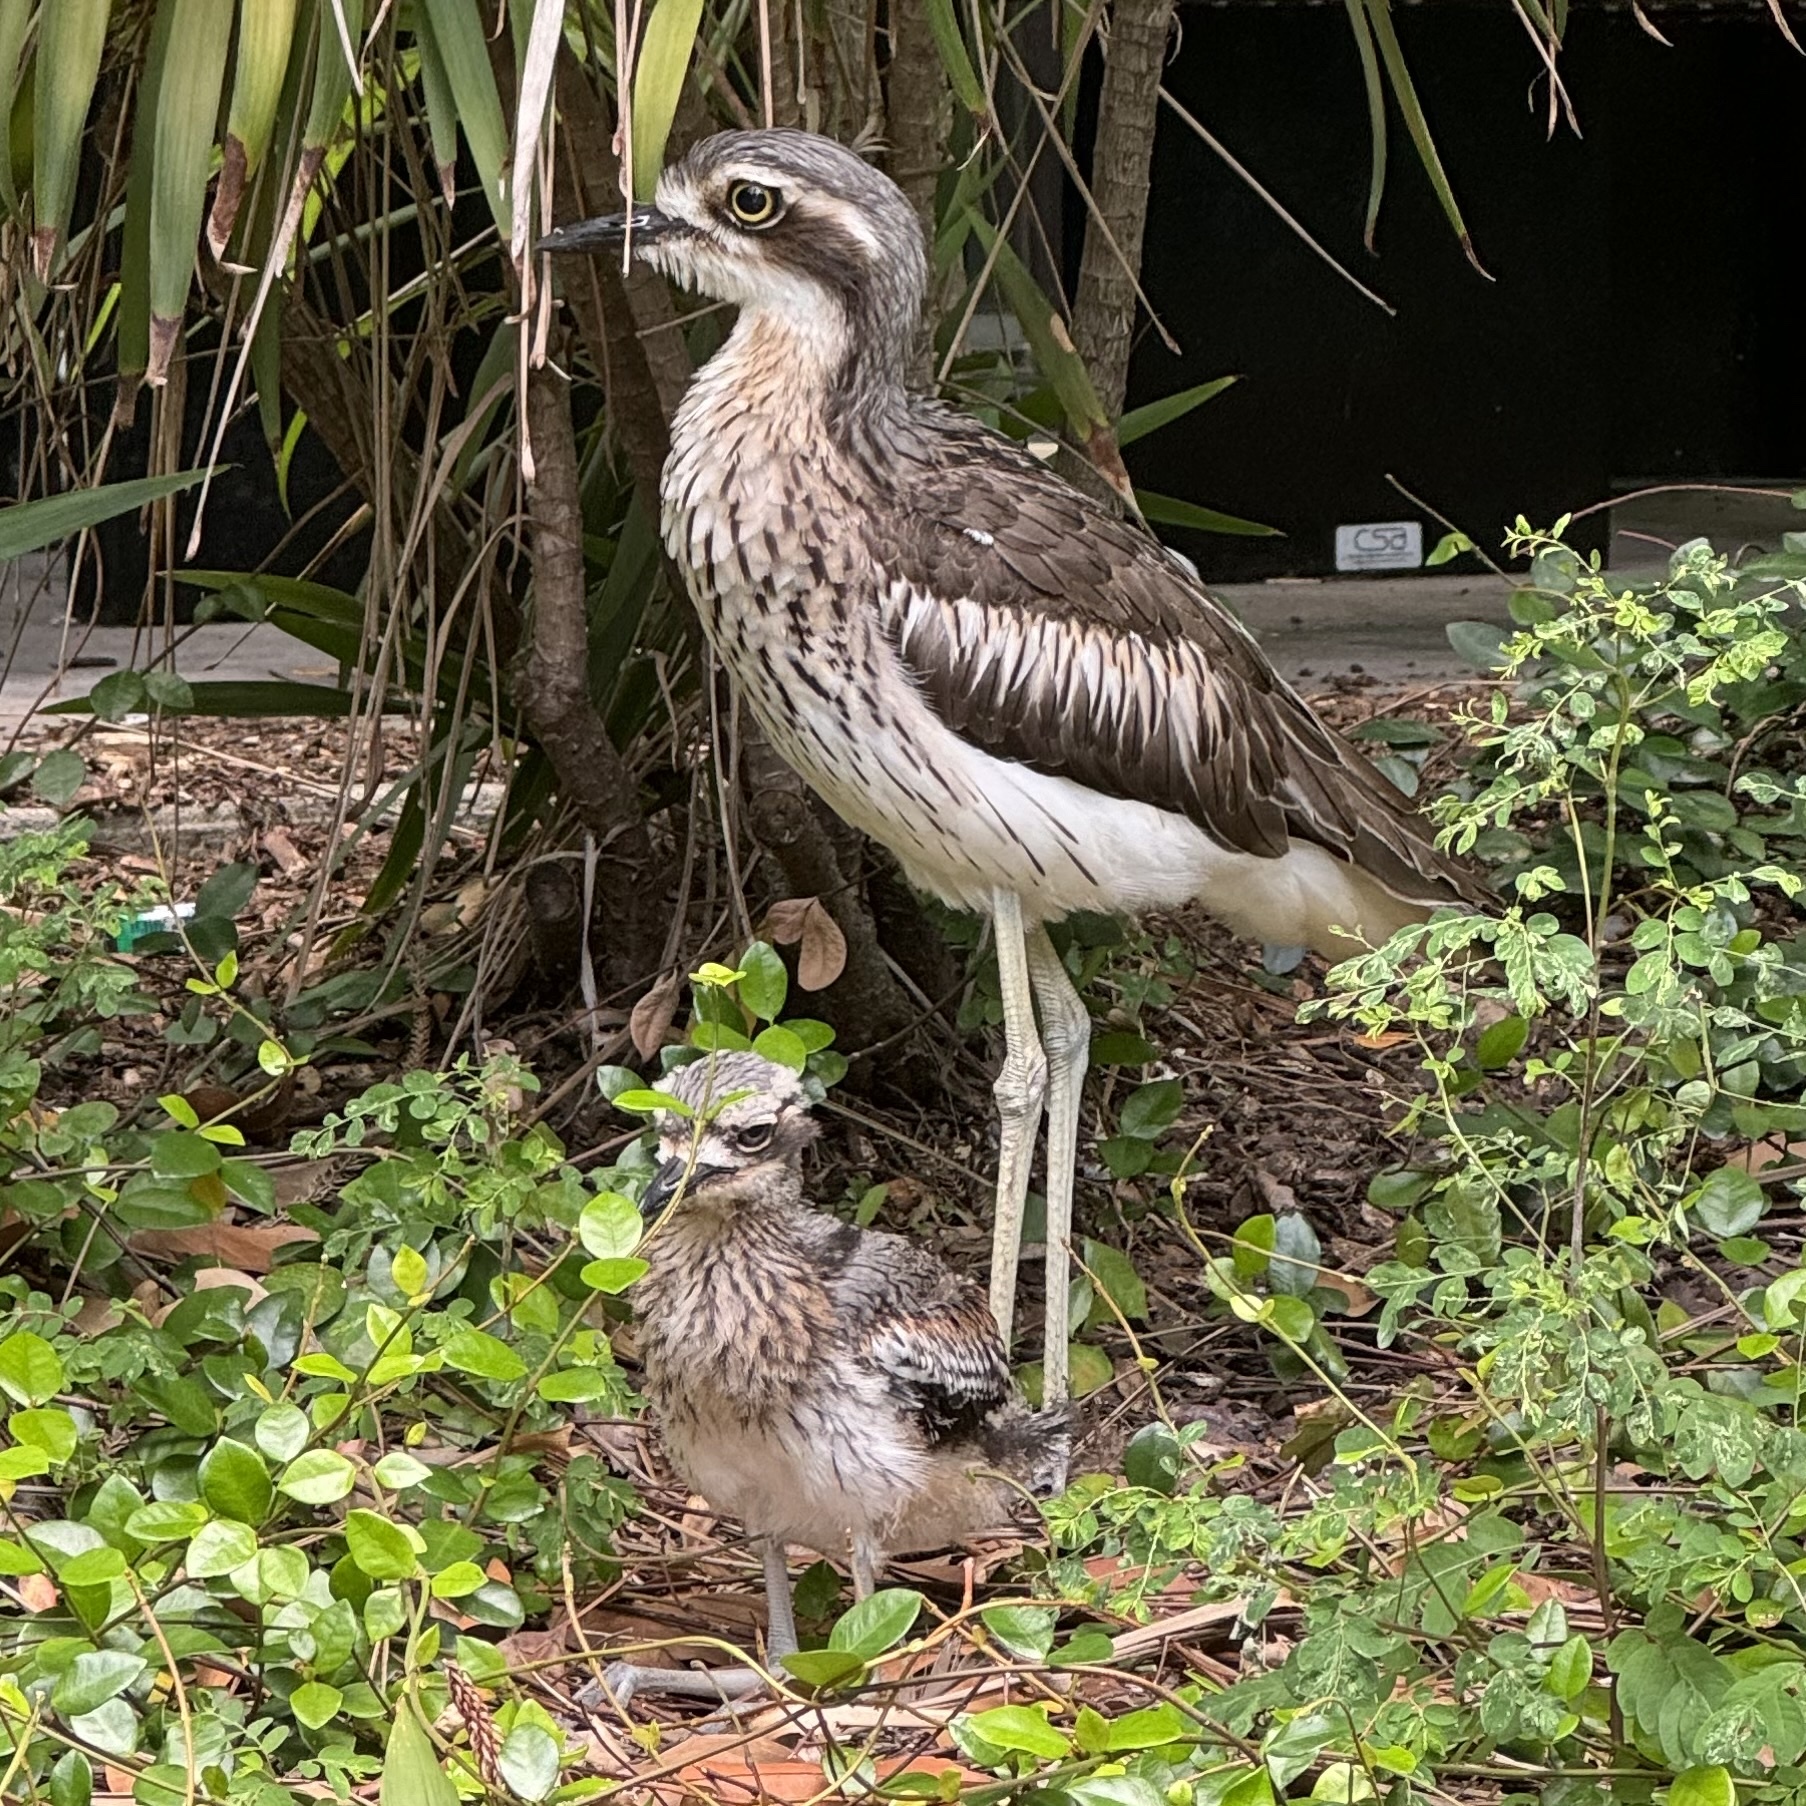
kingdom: Animalia
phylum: Chordata
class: Aves
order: Charadriiformes
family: Burhinidae
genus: Burhinus
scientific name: Burhinus grallarius
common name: Bush stone-curlew
